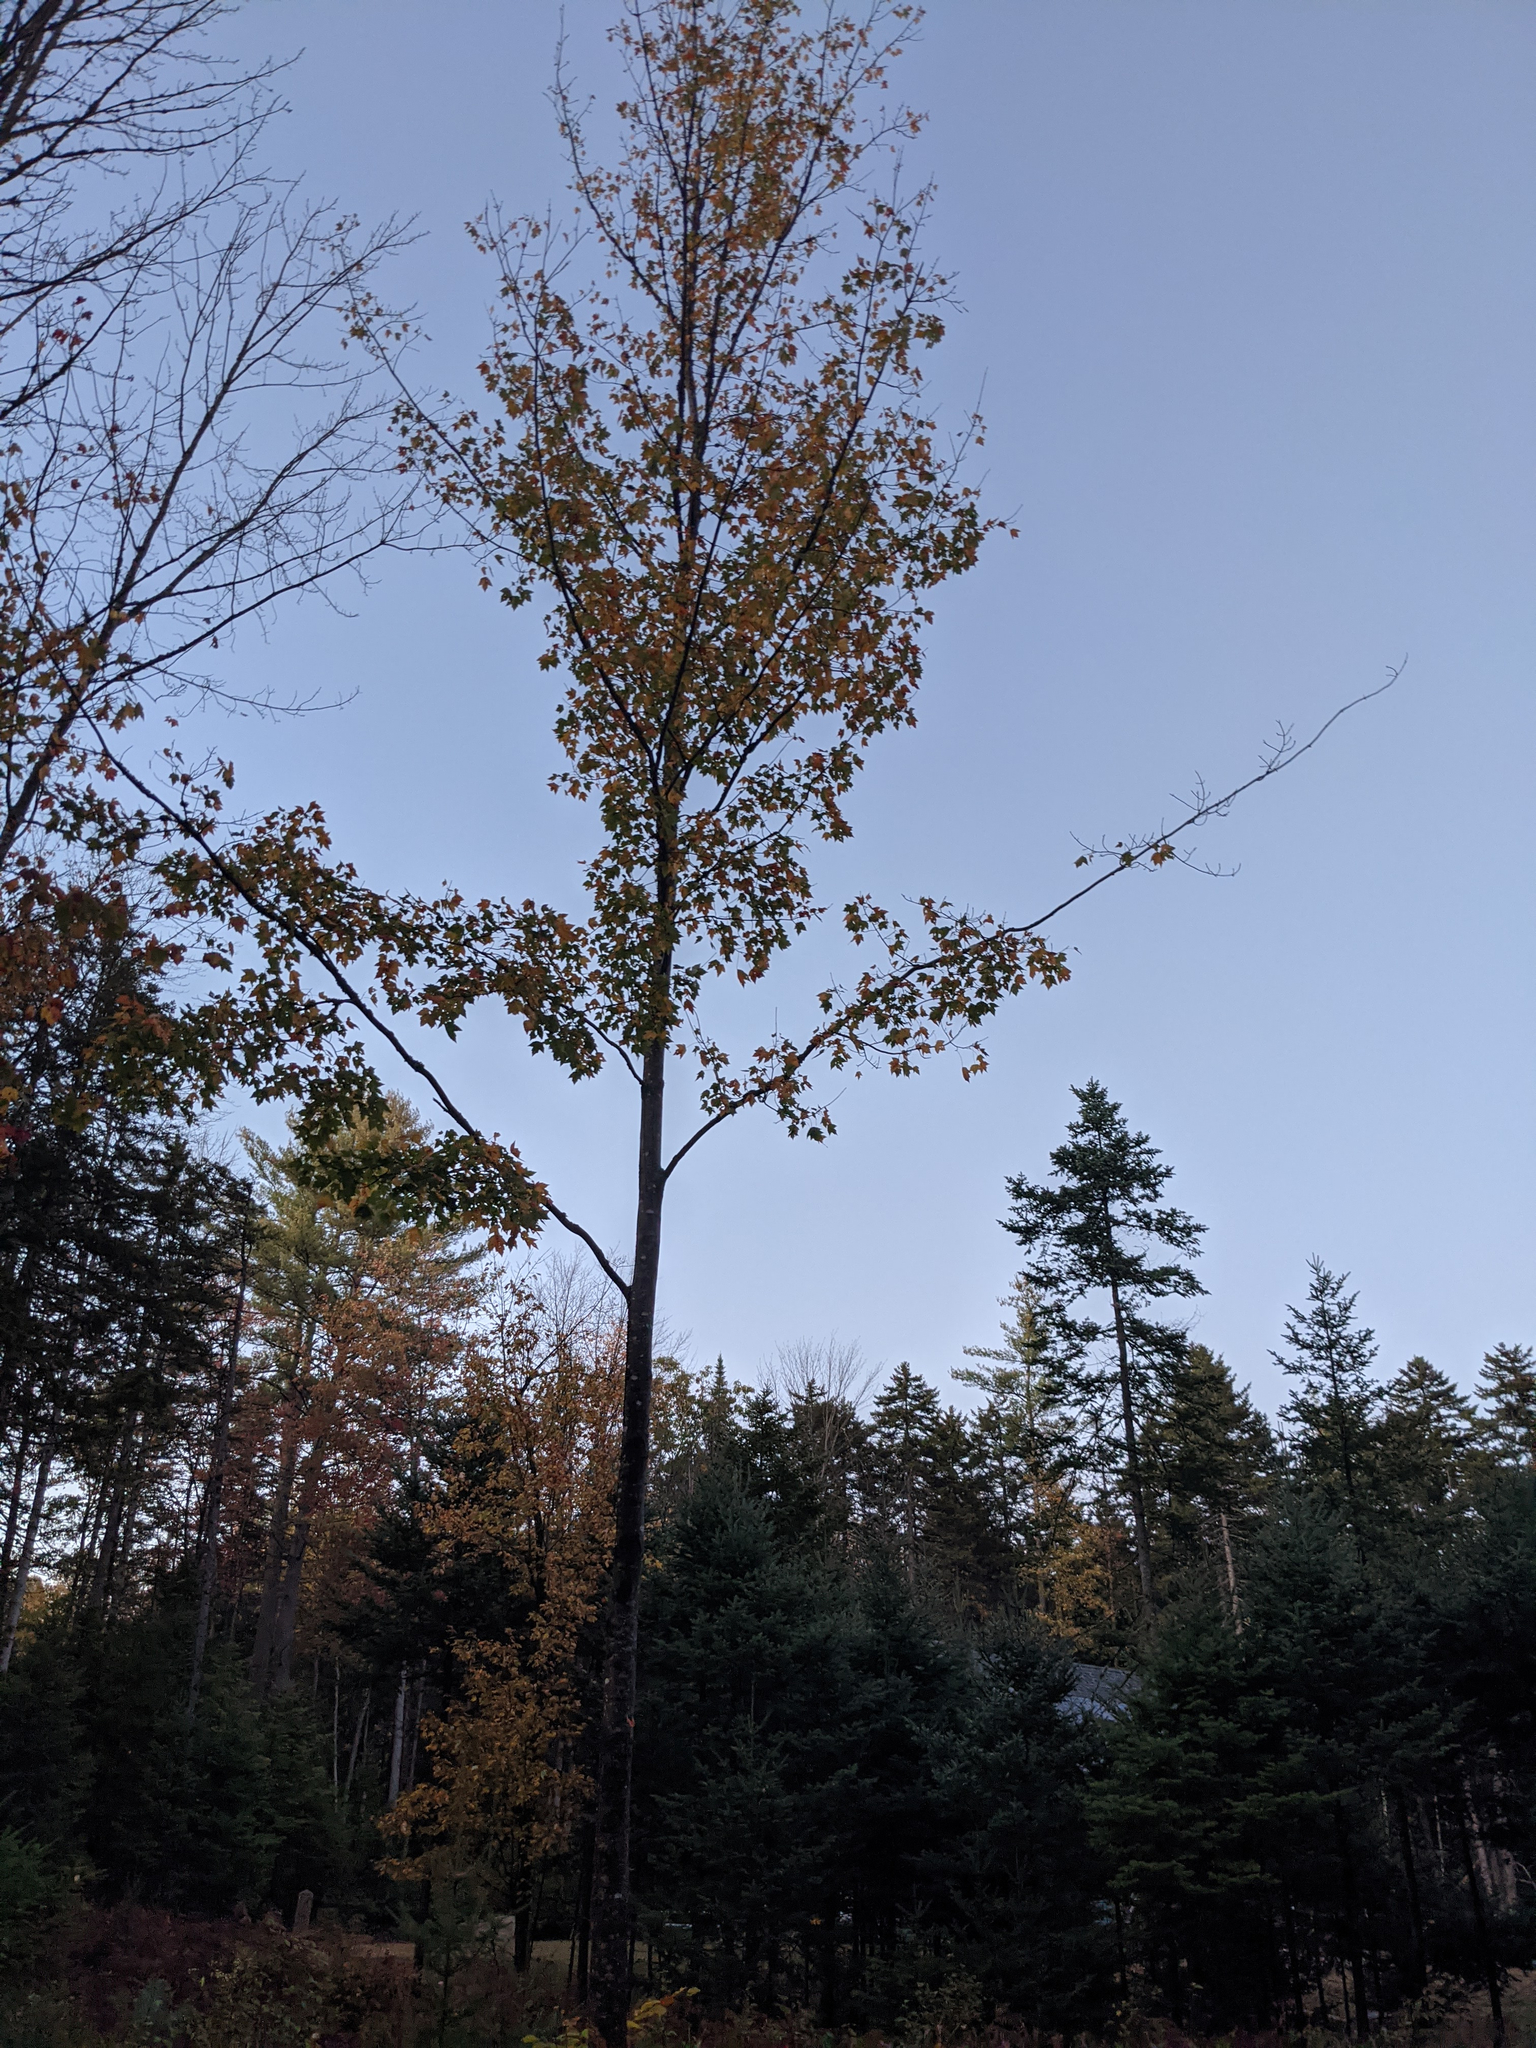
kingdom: Plantae
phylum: Tracheophyta
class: Magnoliopsida
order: Sapindales
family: Sapindaceae
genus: Acer
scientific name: Acer rubrum
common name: Red maple
